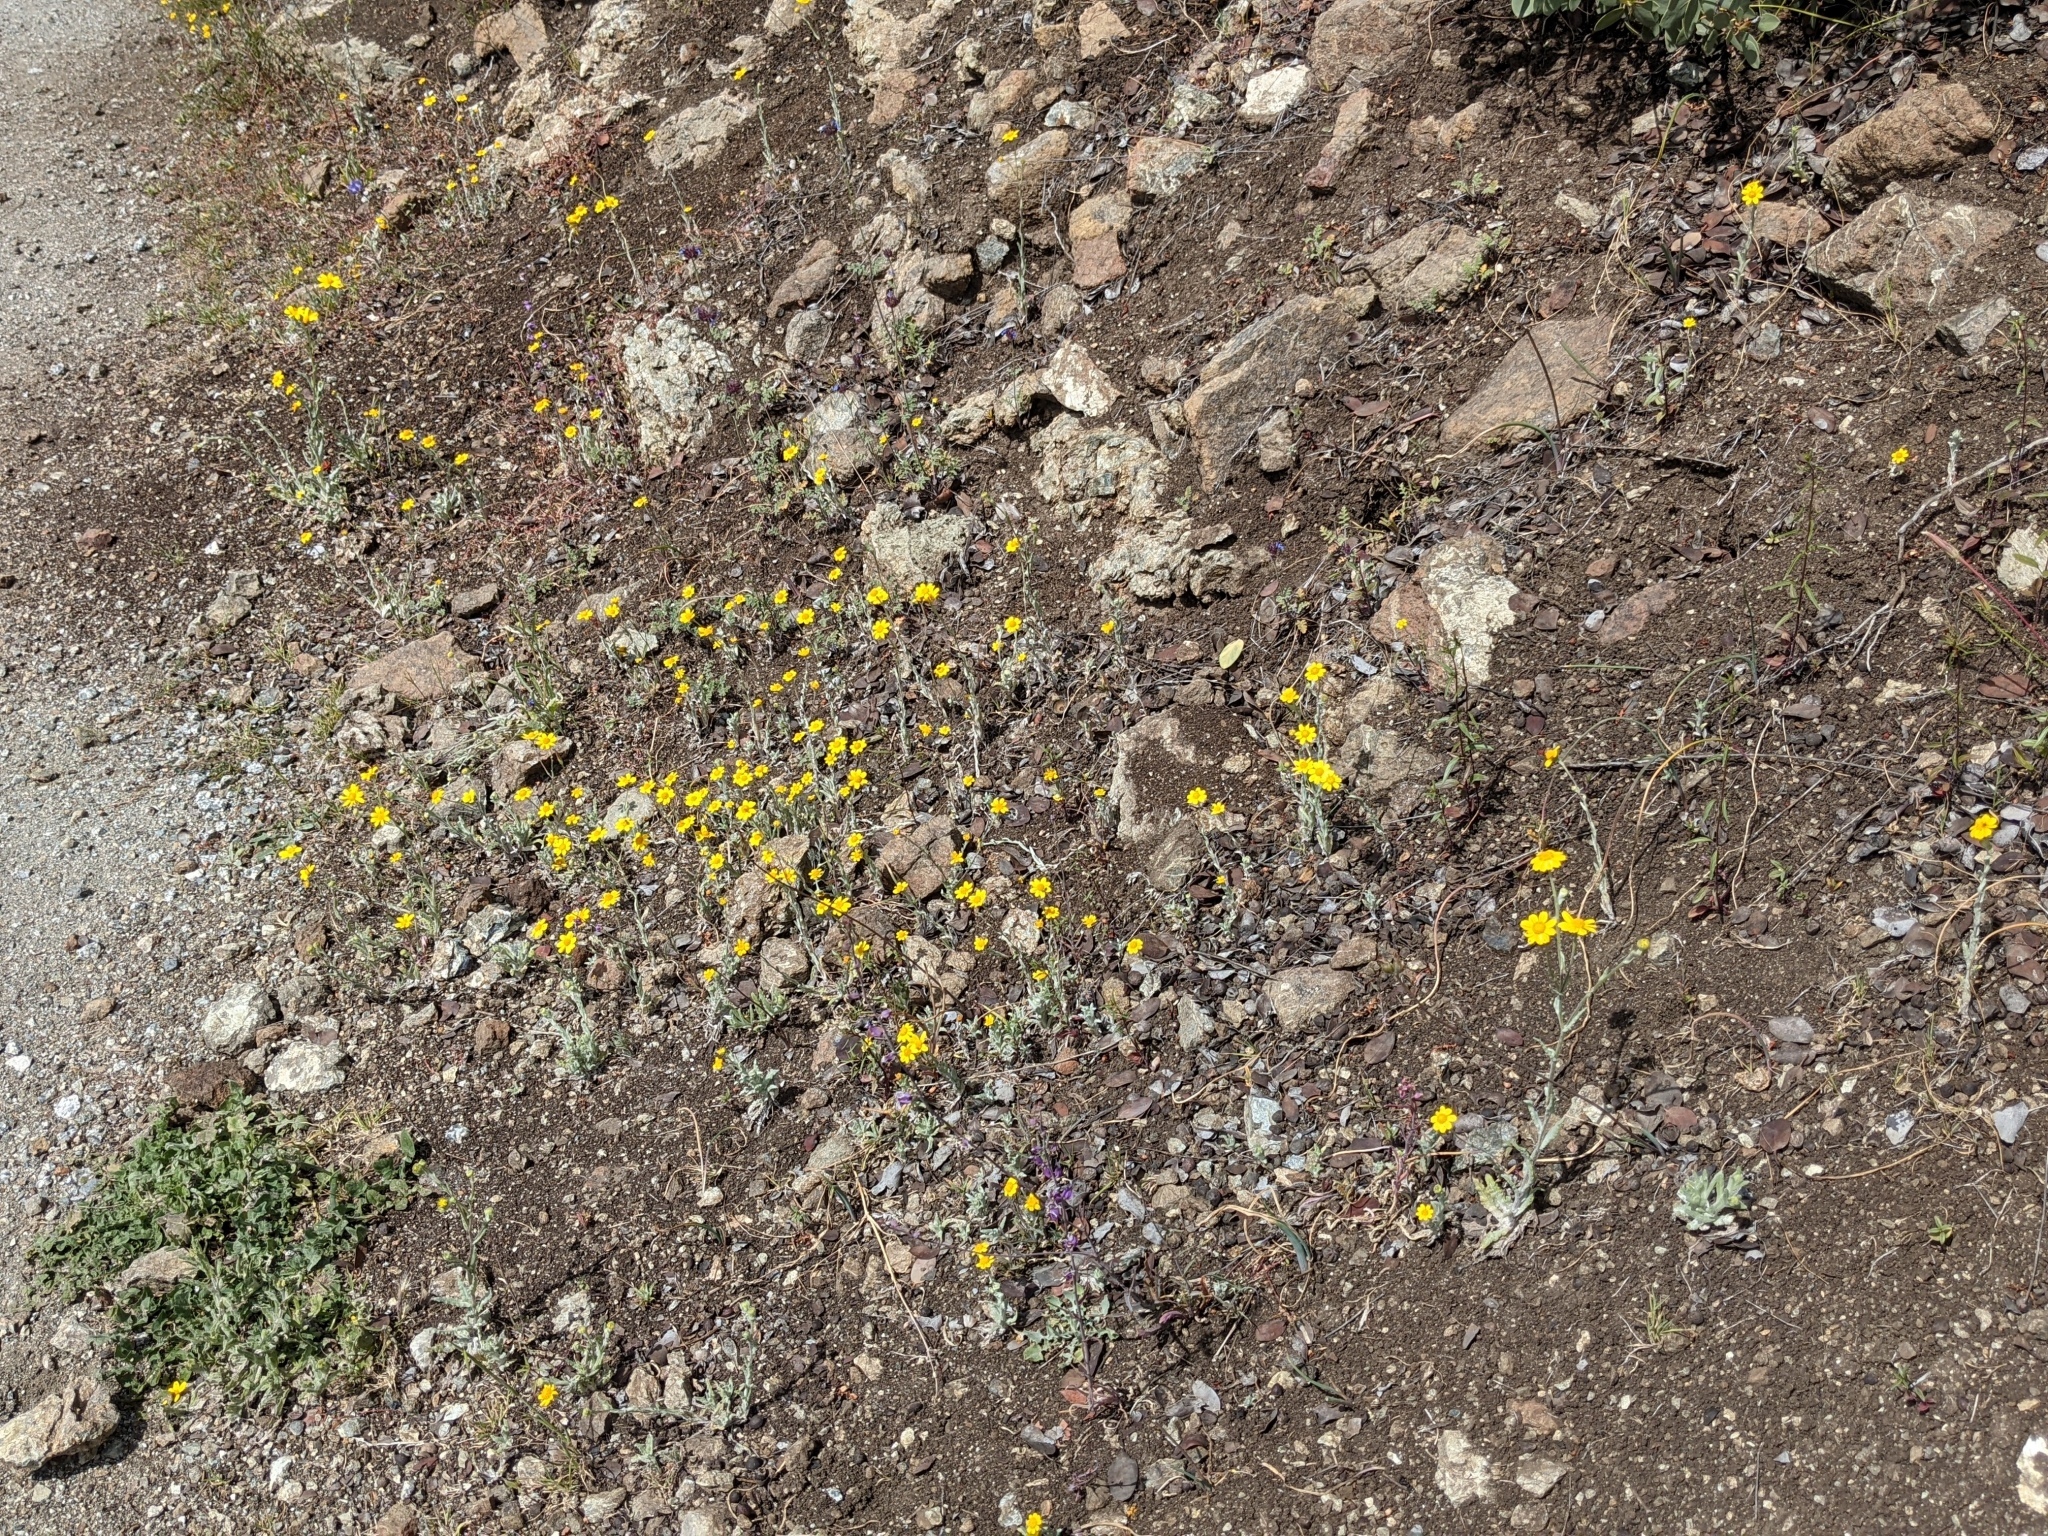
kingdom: Plantae
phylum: Tracheophyta
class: Magnoliopsida
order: Asterales
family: Asteraceae
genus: Monolopia
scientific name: Monolopia gracilens
